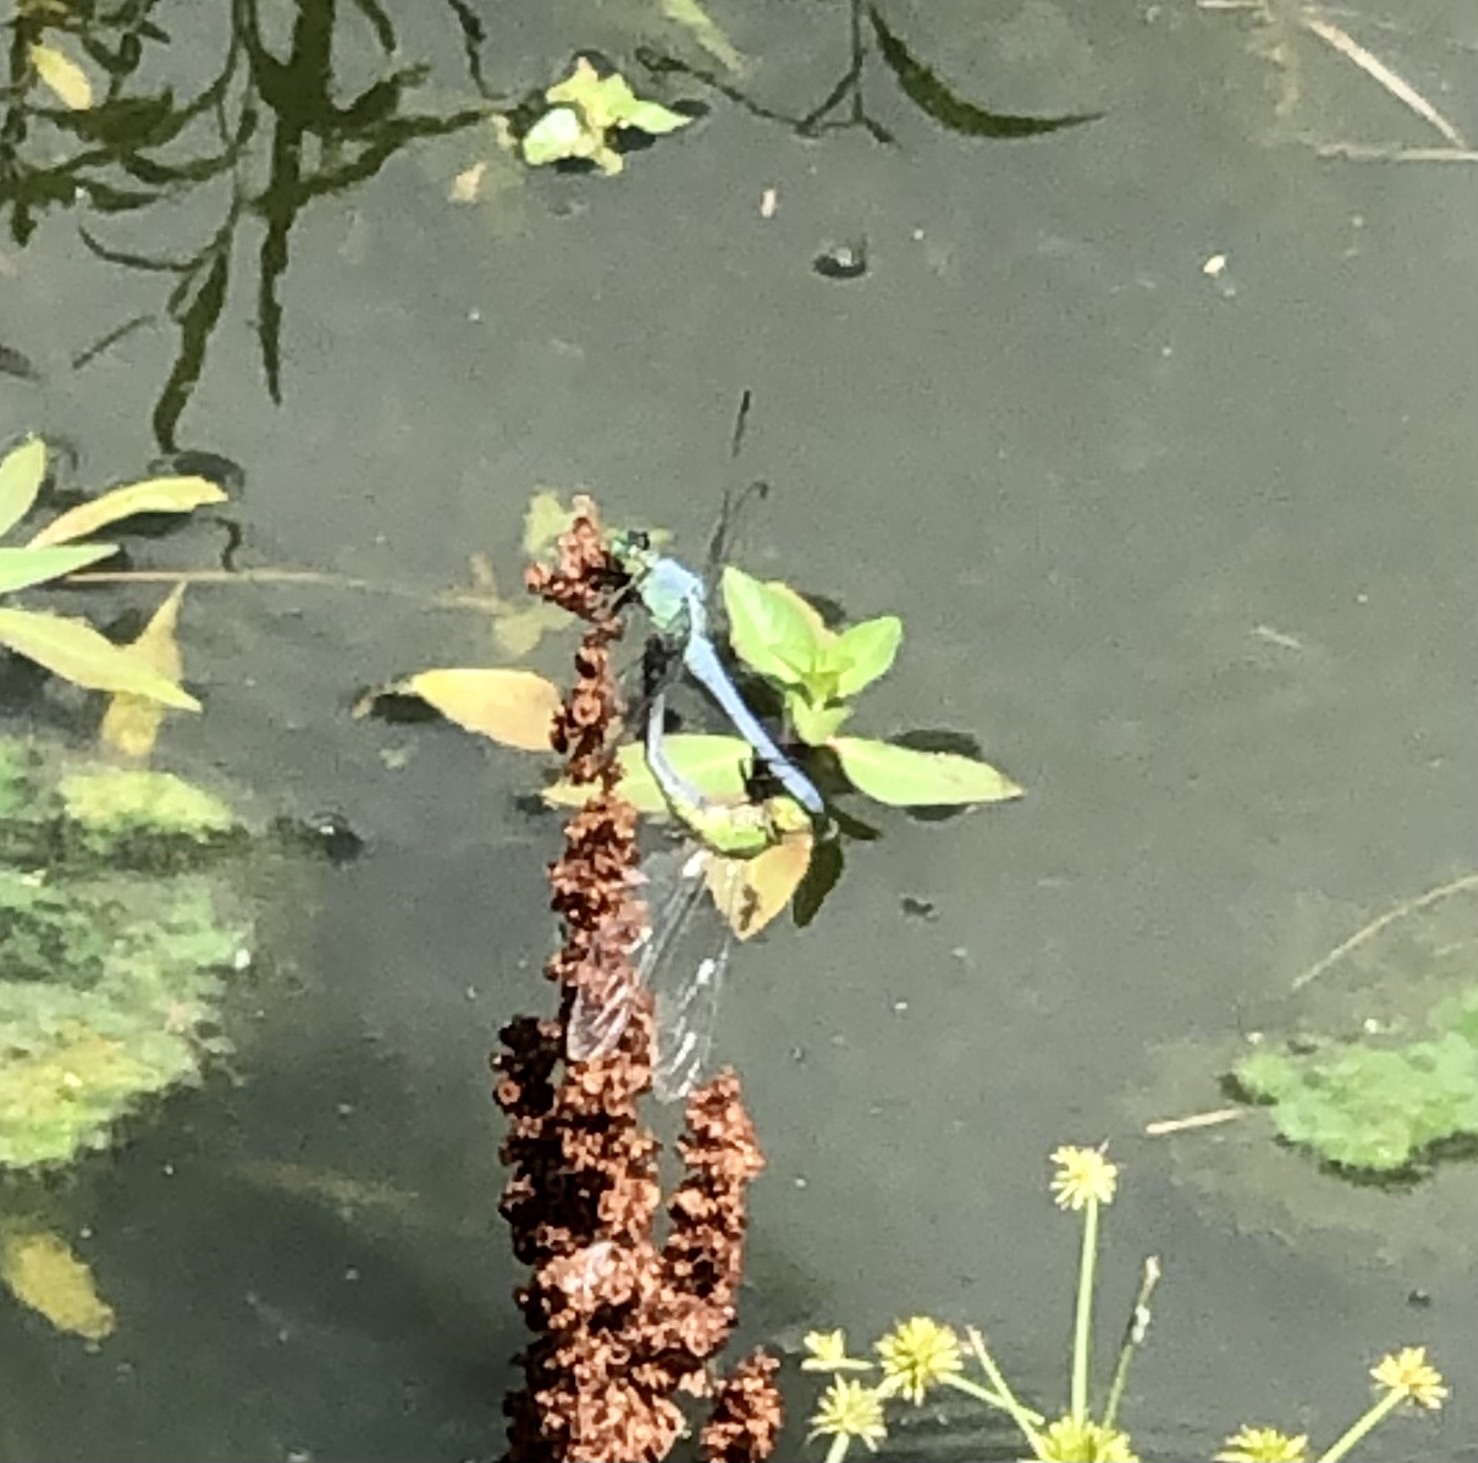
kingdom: Animalia
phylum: Arthropoda
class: Insecta
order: Odonata
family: Libellulidae
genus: Erythemis
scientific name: Erythemis simplicicollis
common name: Eastern pondhawk
